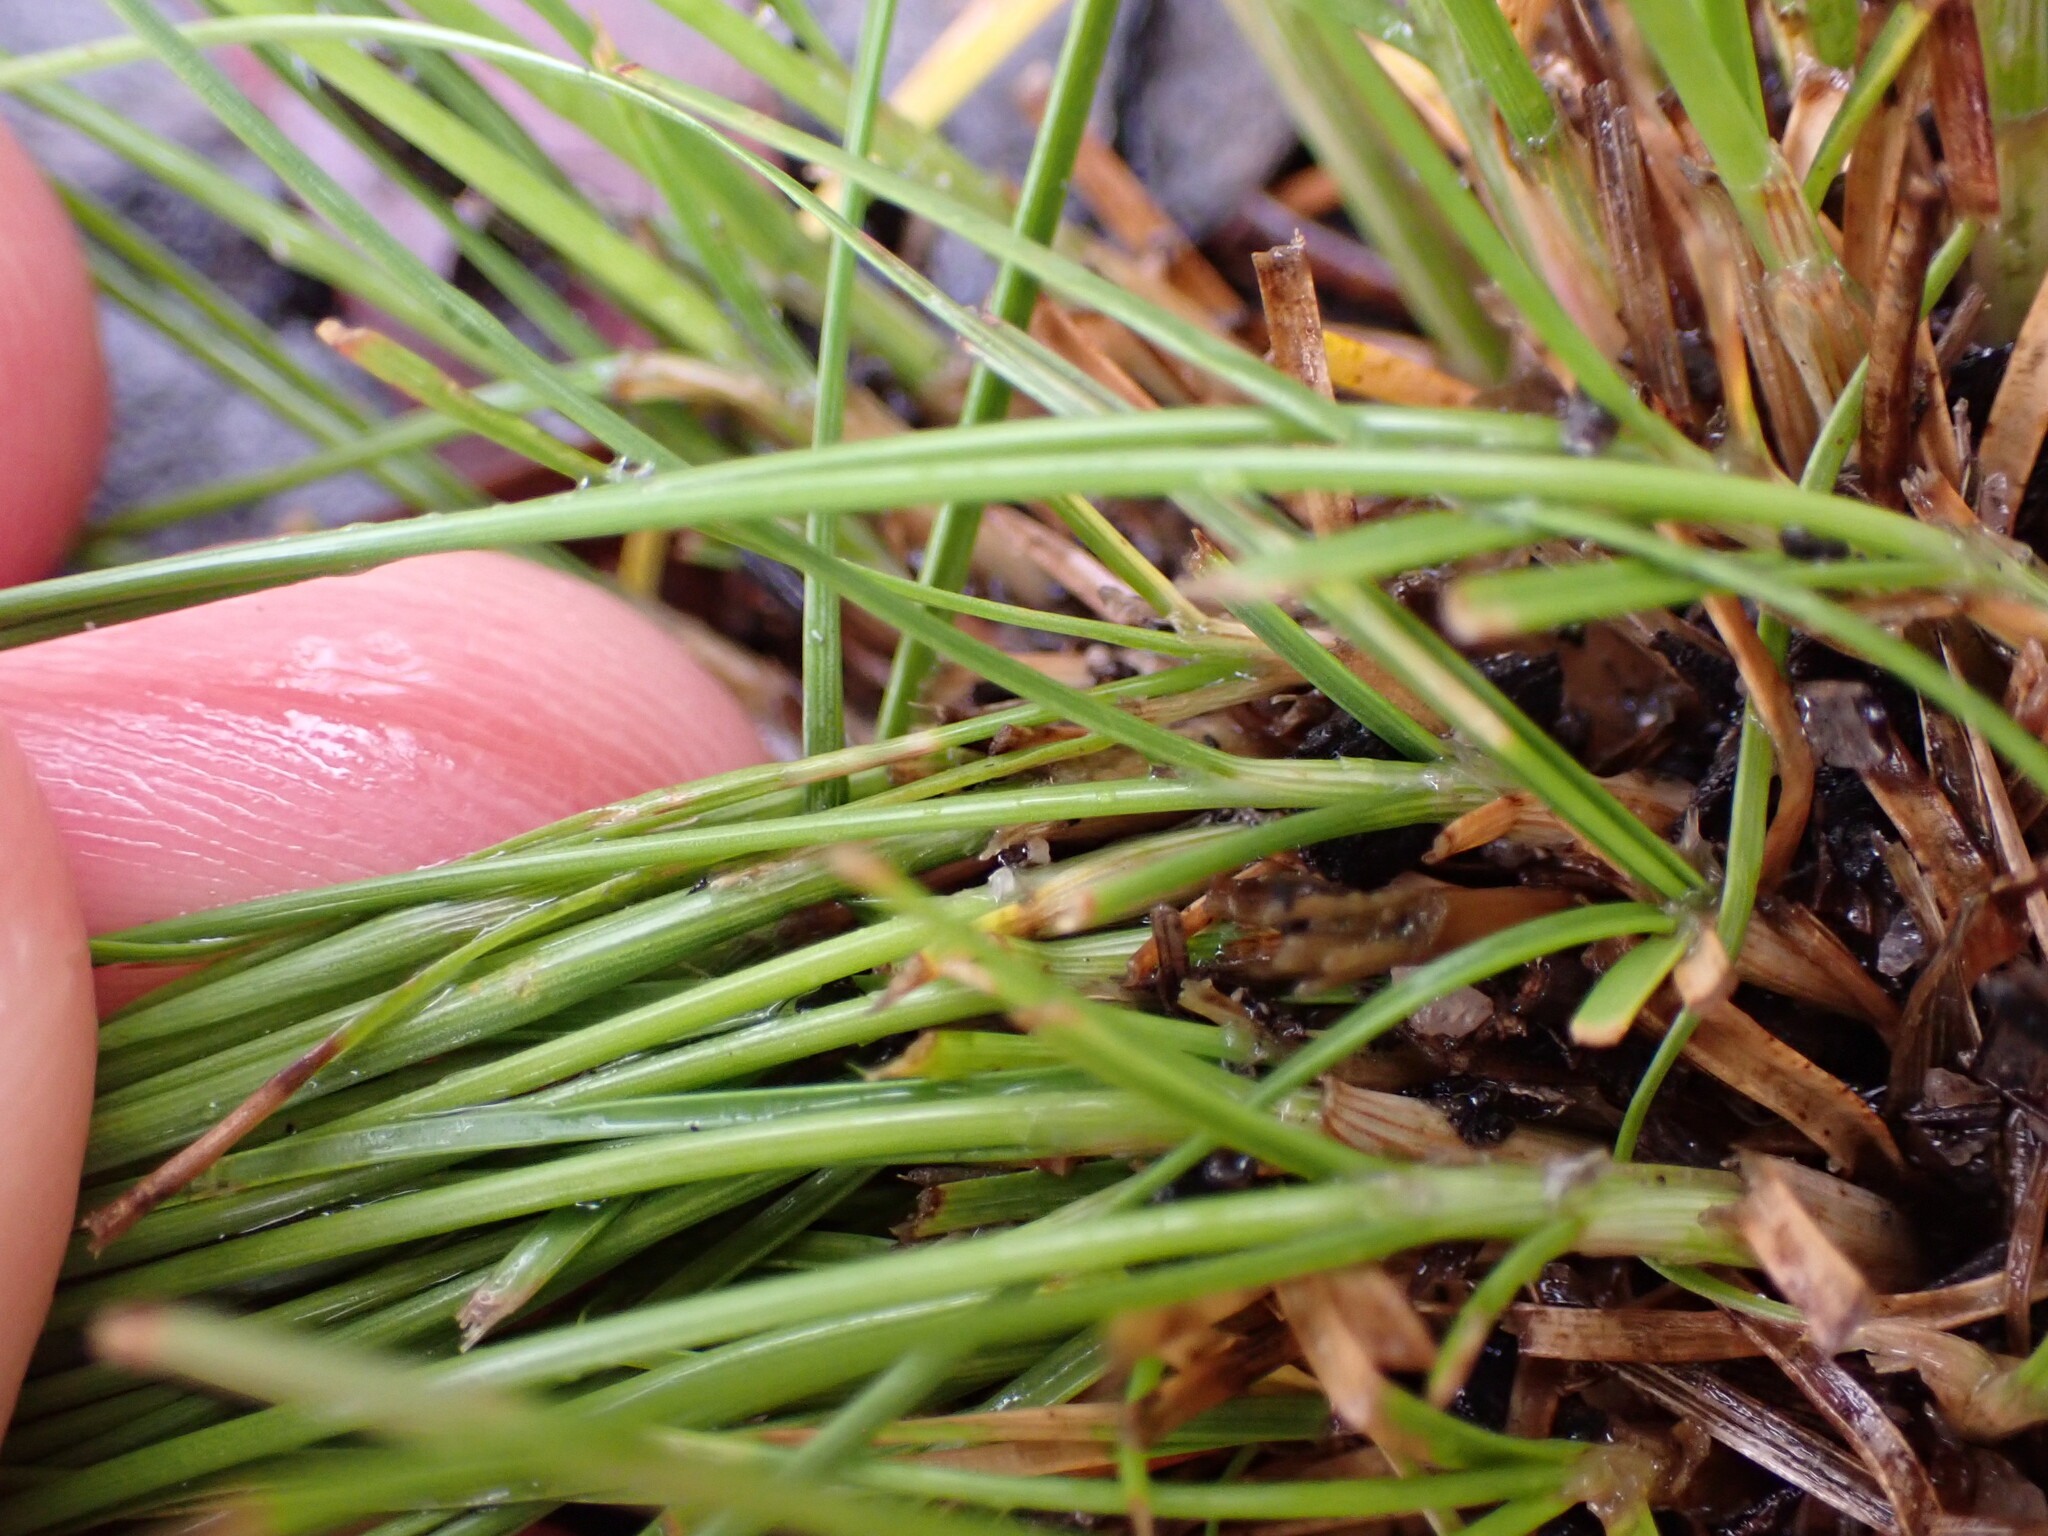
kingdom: Plantae
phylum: Tracheophyta
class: Liliopsida
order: Poales
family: Juncaceae
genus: Juncus
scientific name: Juncus tenuis
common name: Slender rush
